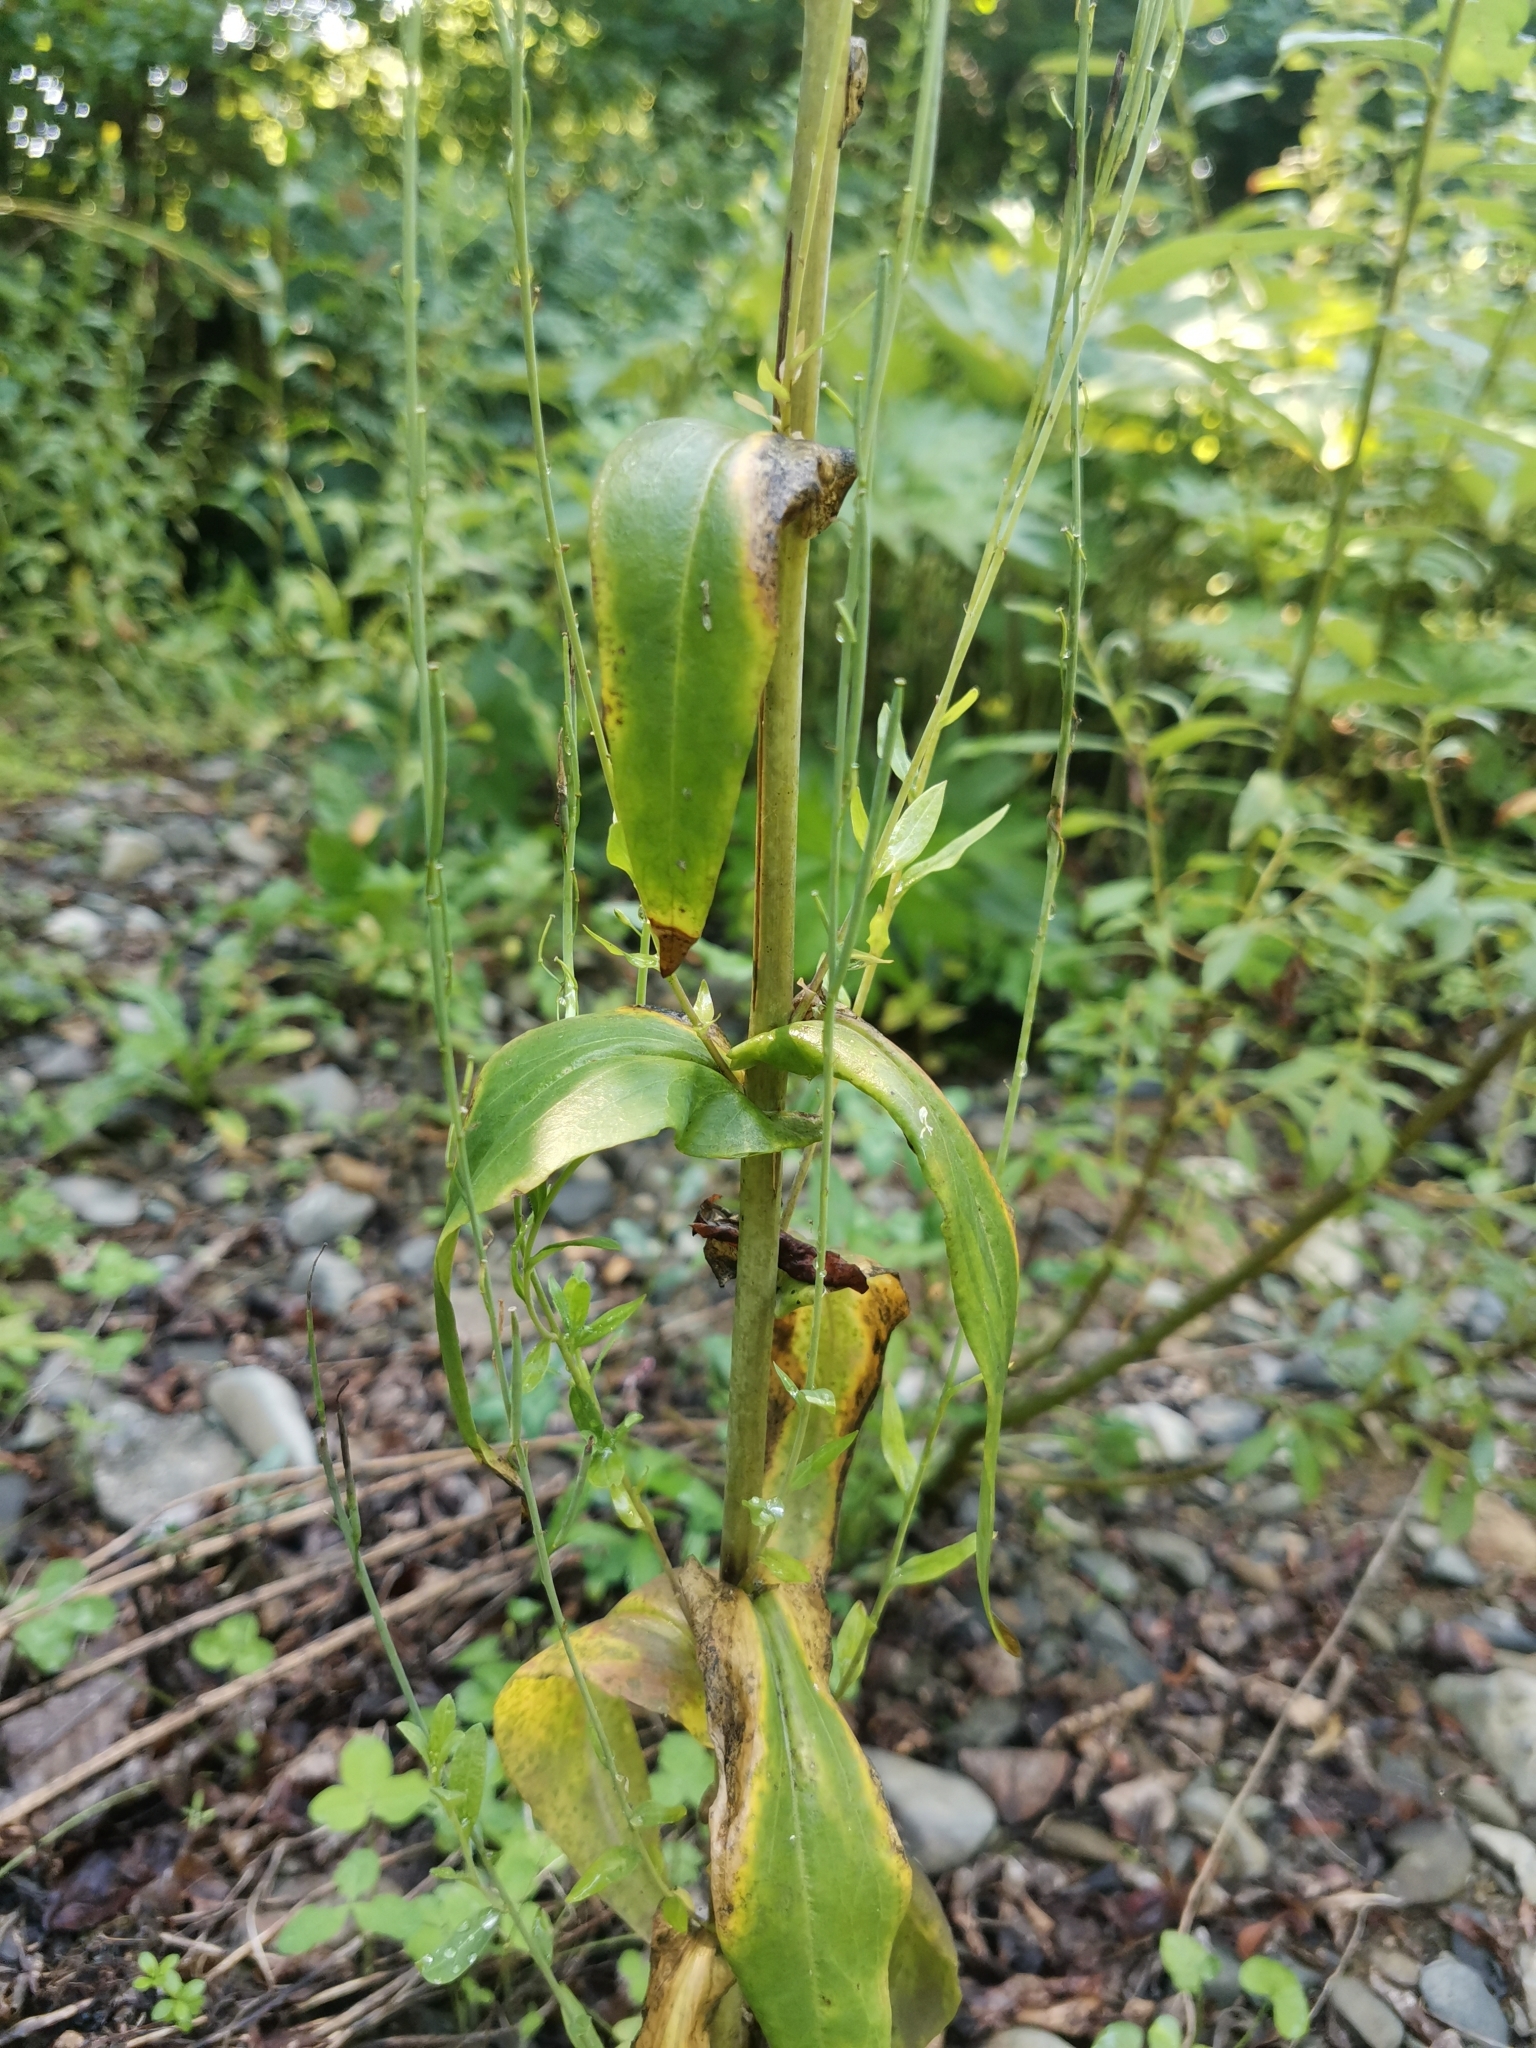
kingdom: Plantae
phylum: Tracheophyta
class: Magnoliopsida
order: Brassicales
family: Brassicaceae
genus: Turritis
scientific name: Turritis glabra
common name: Tower rockcress
